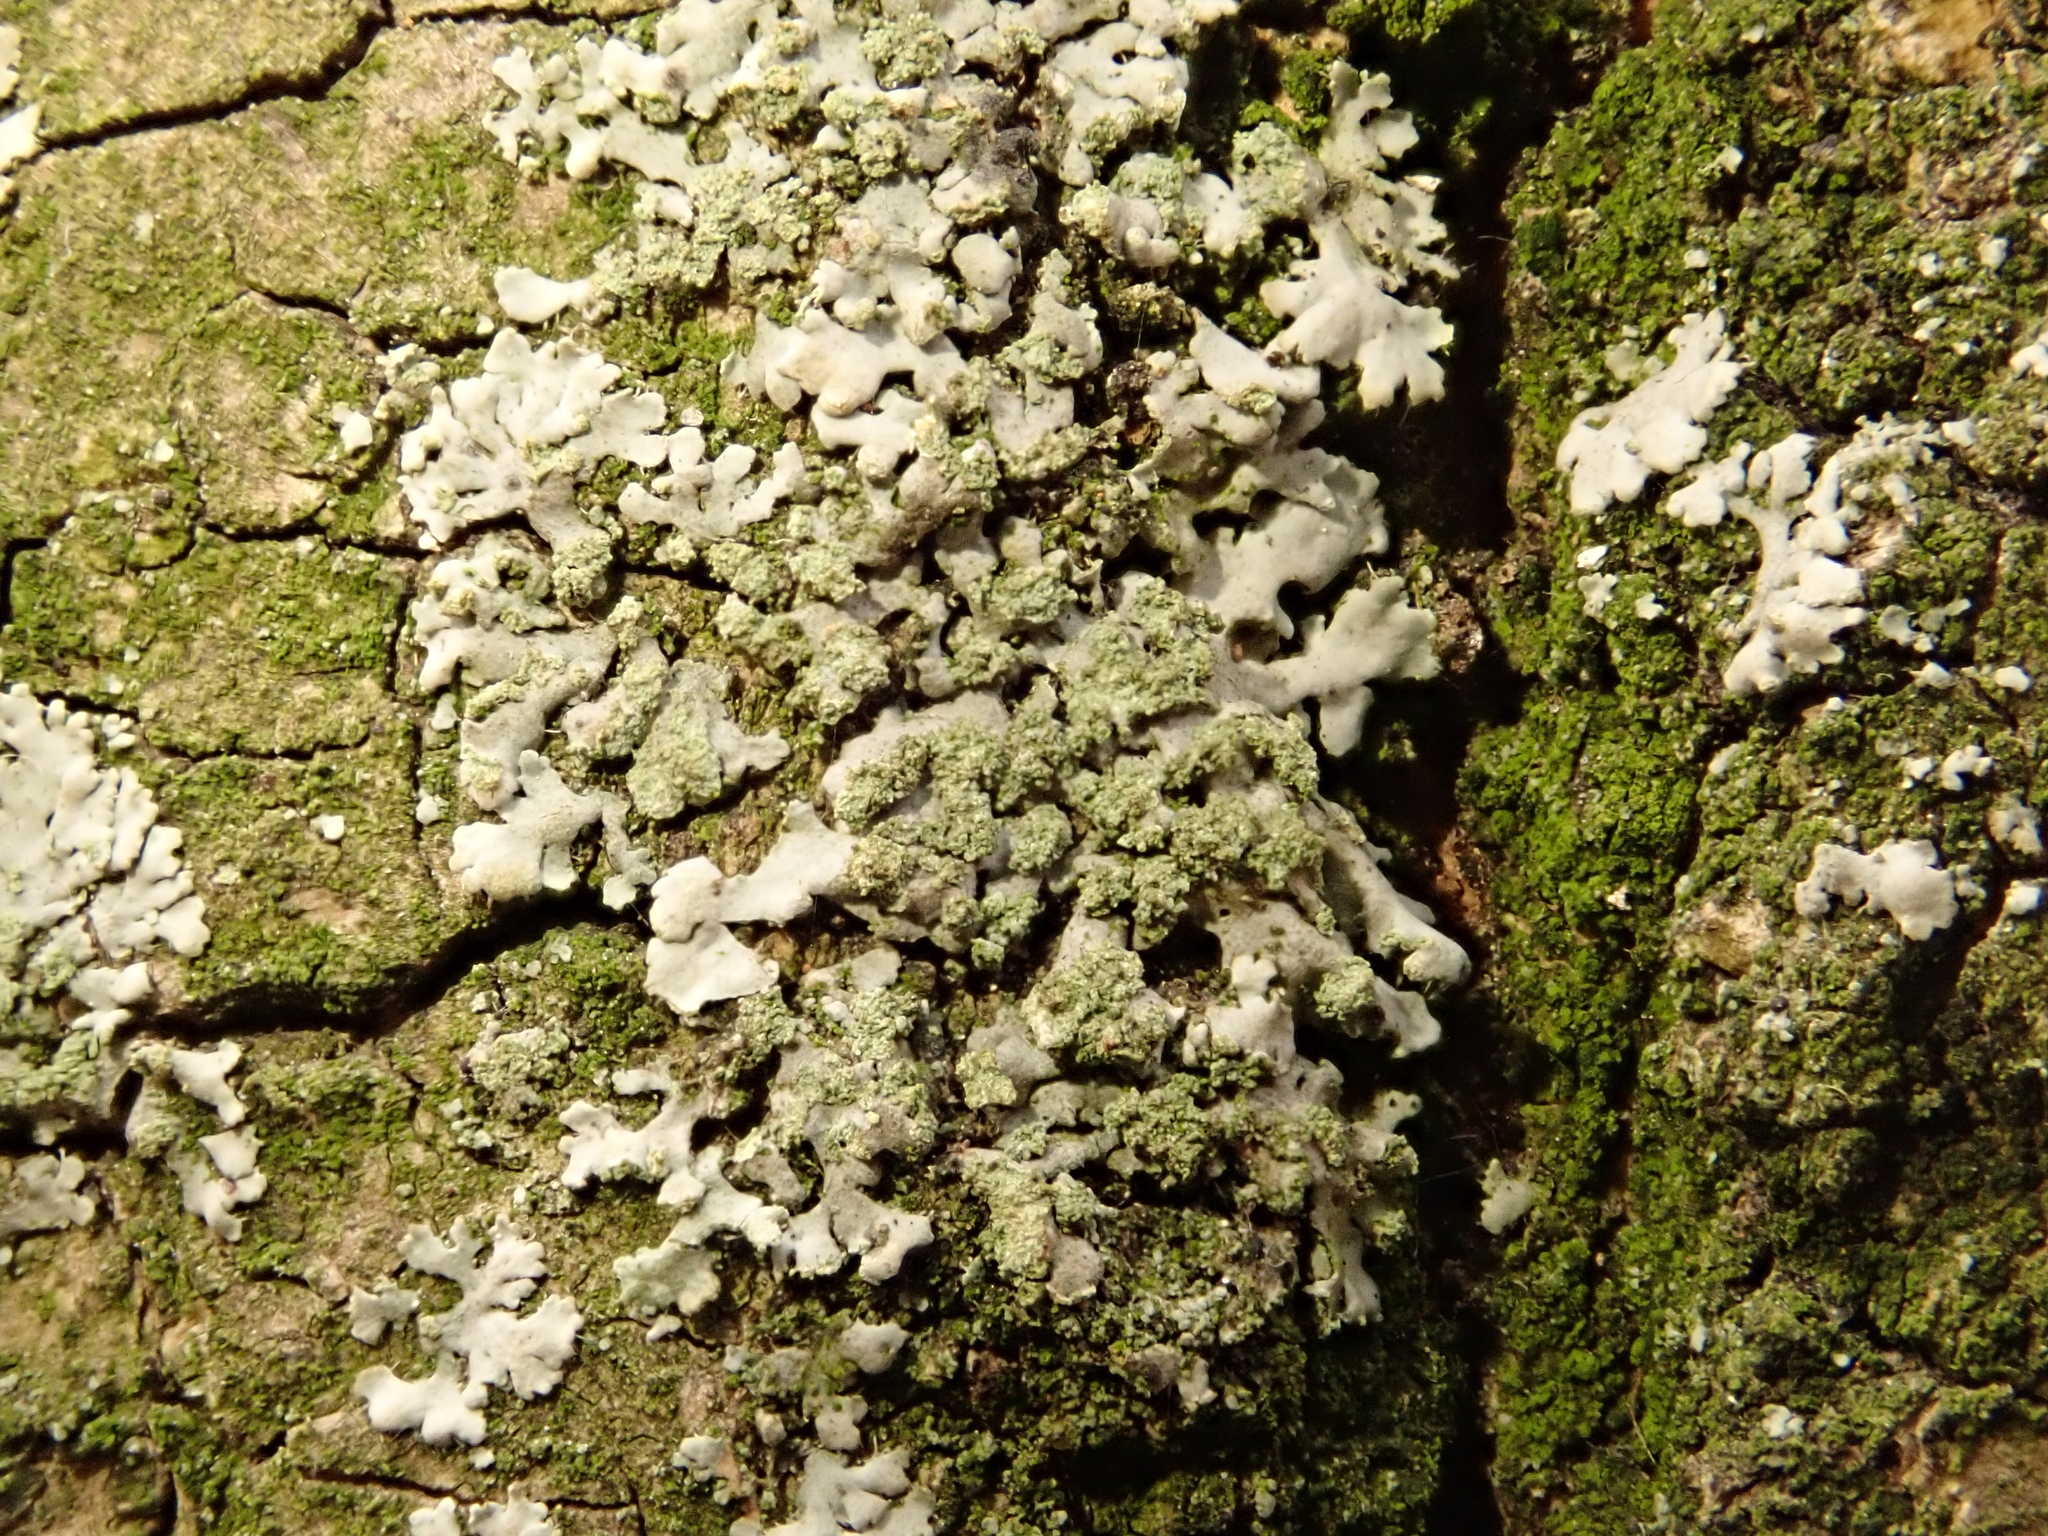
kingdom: Fungi
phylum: Ascomycota
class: Lecanoromycetes
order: Caliciales
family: Physciaceae
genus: Phaeophyscia
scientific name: Phaeophyscia orbicularis
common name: Mealy shadow lichen
